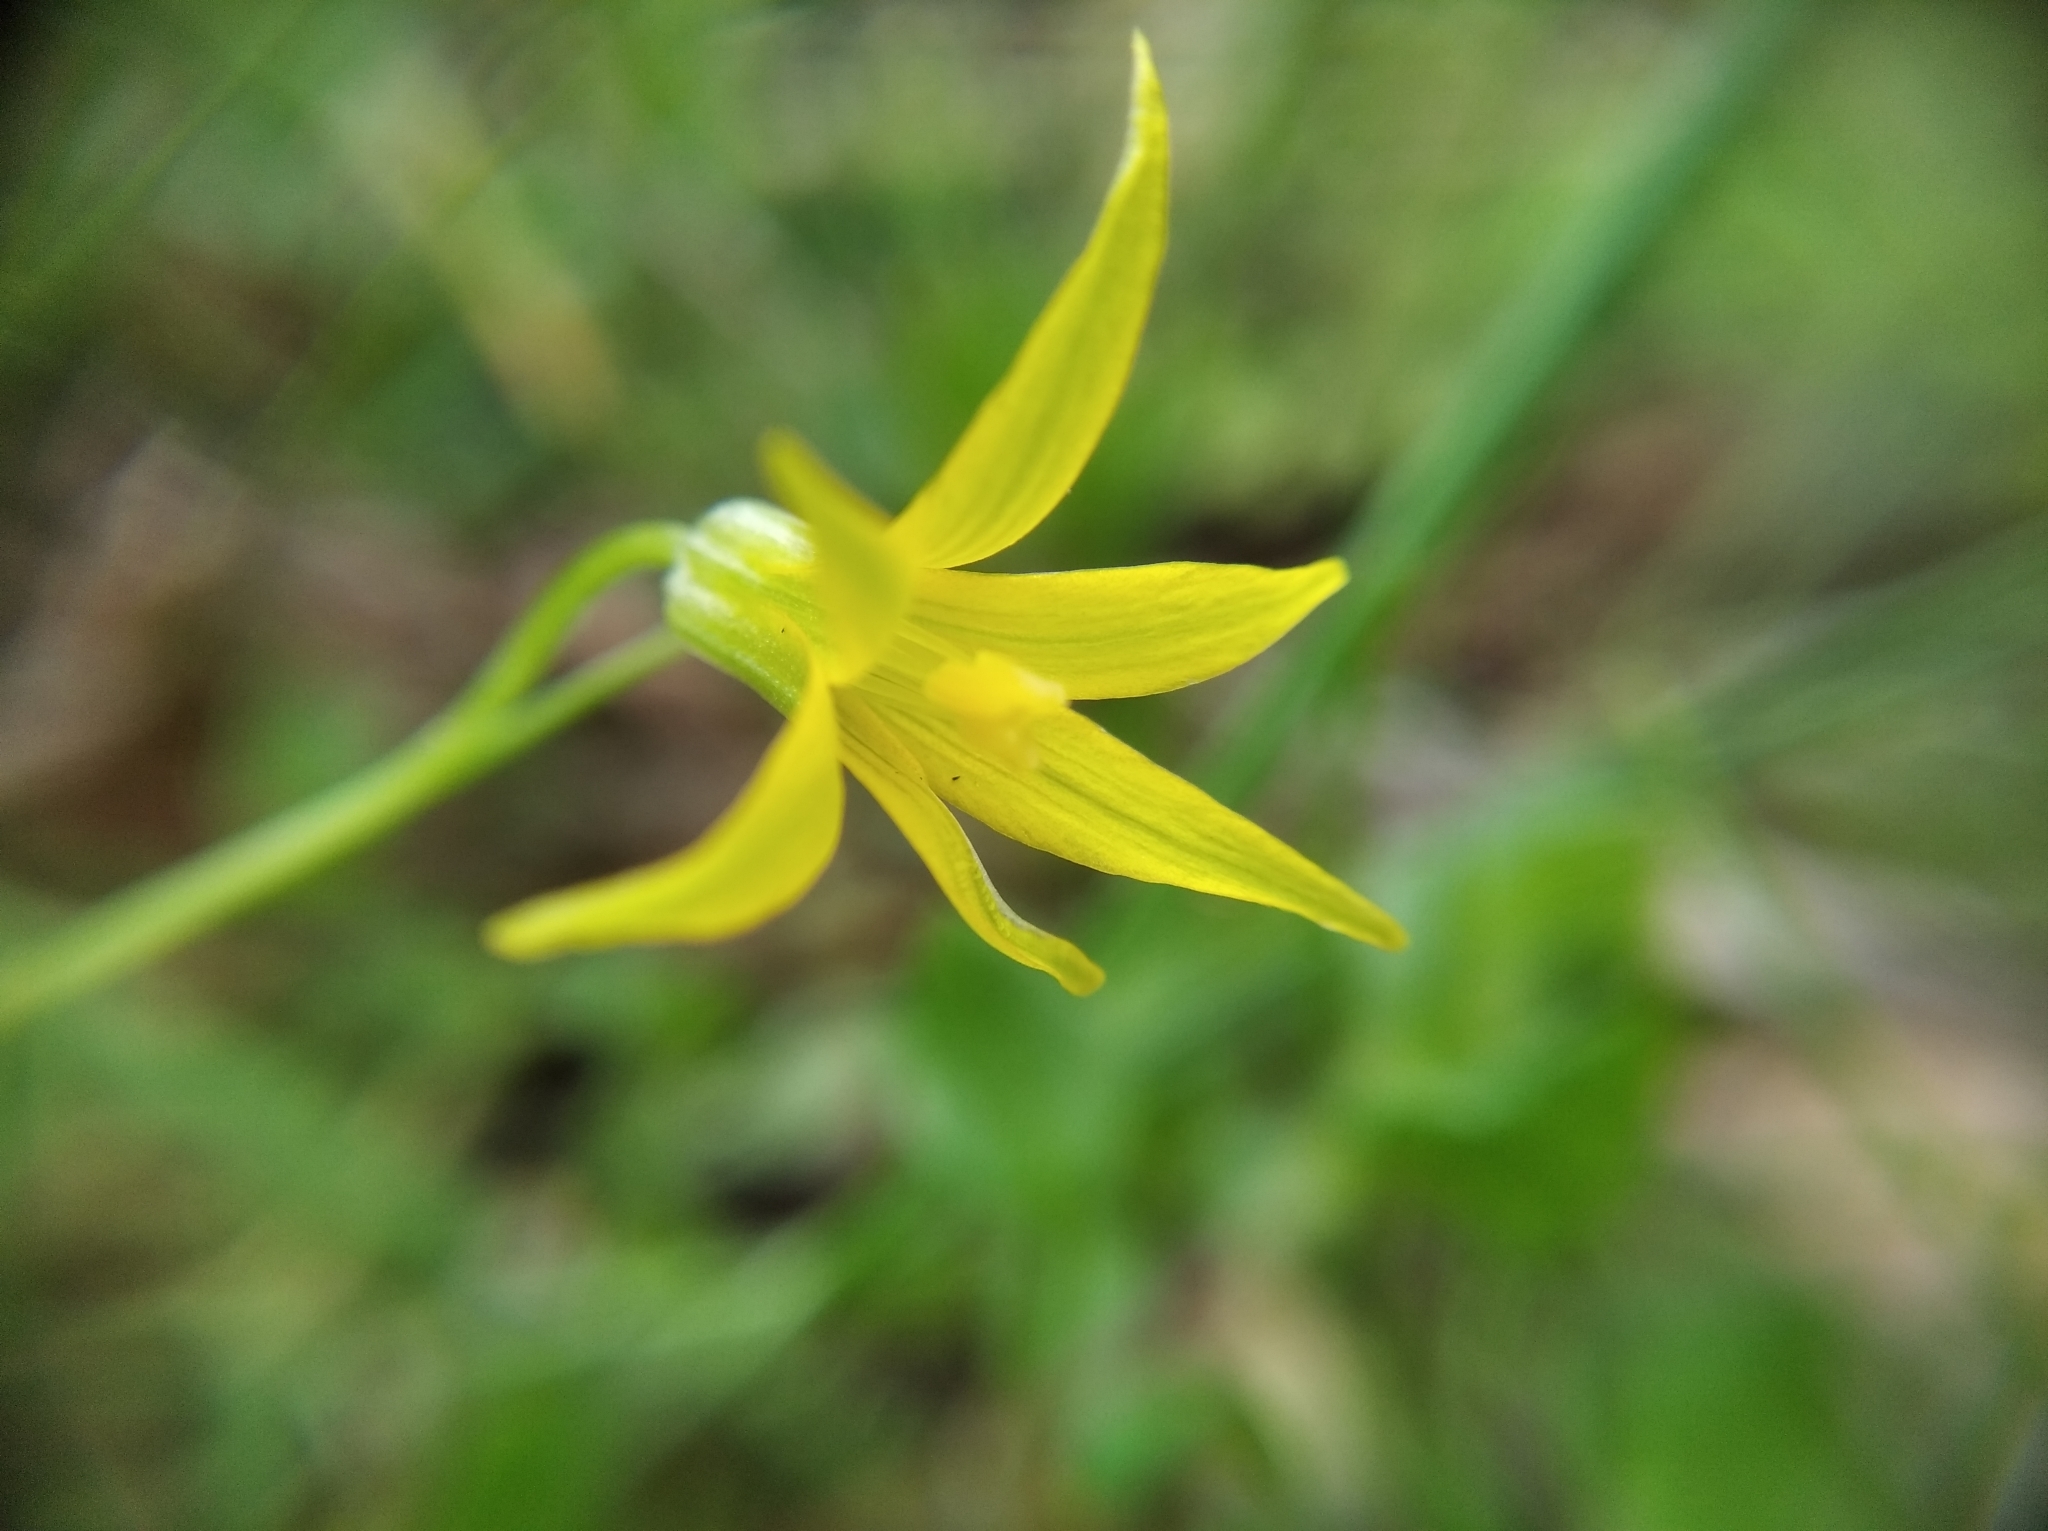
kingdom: Plantae
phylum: Tracheophyta
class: Liliopsida
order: Liliales
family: Liliaceae
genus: Gagea
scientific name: Gagea minima
